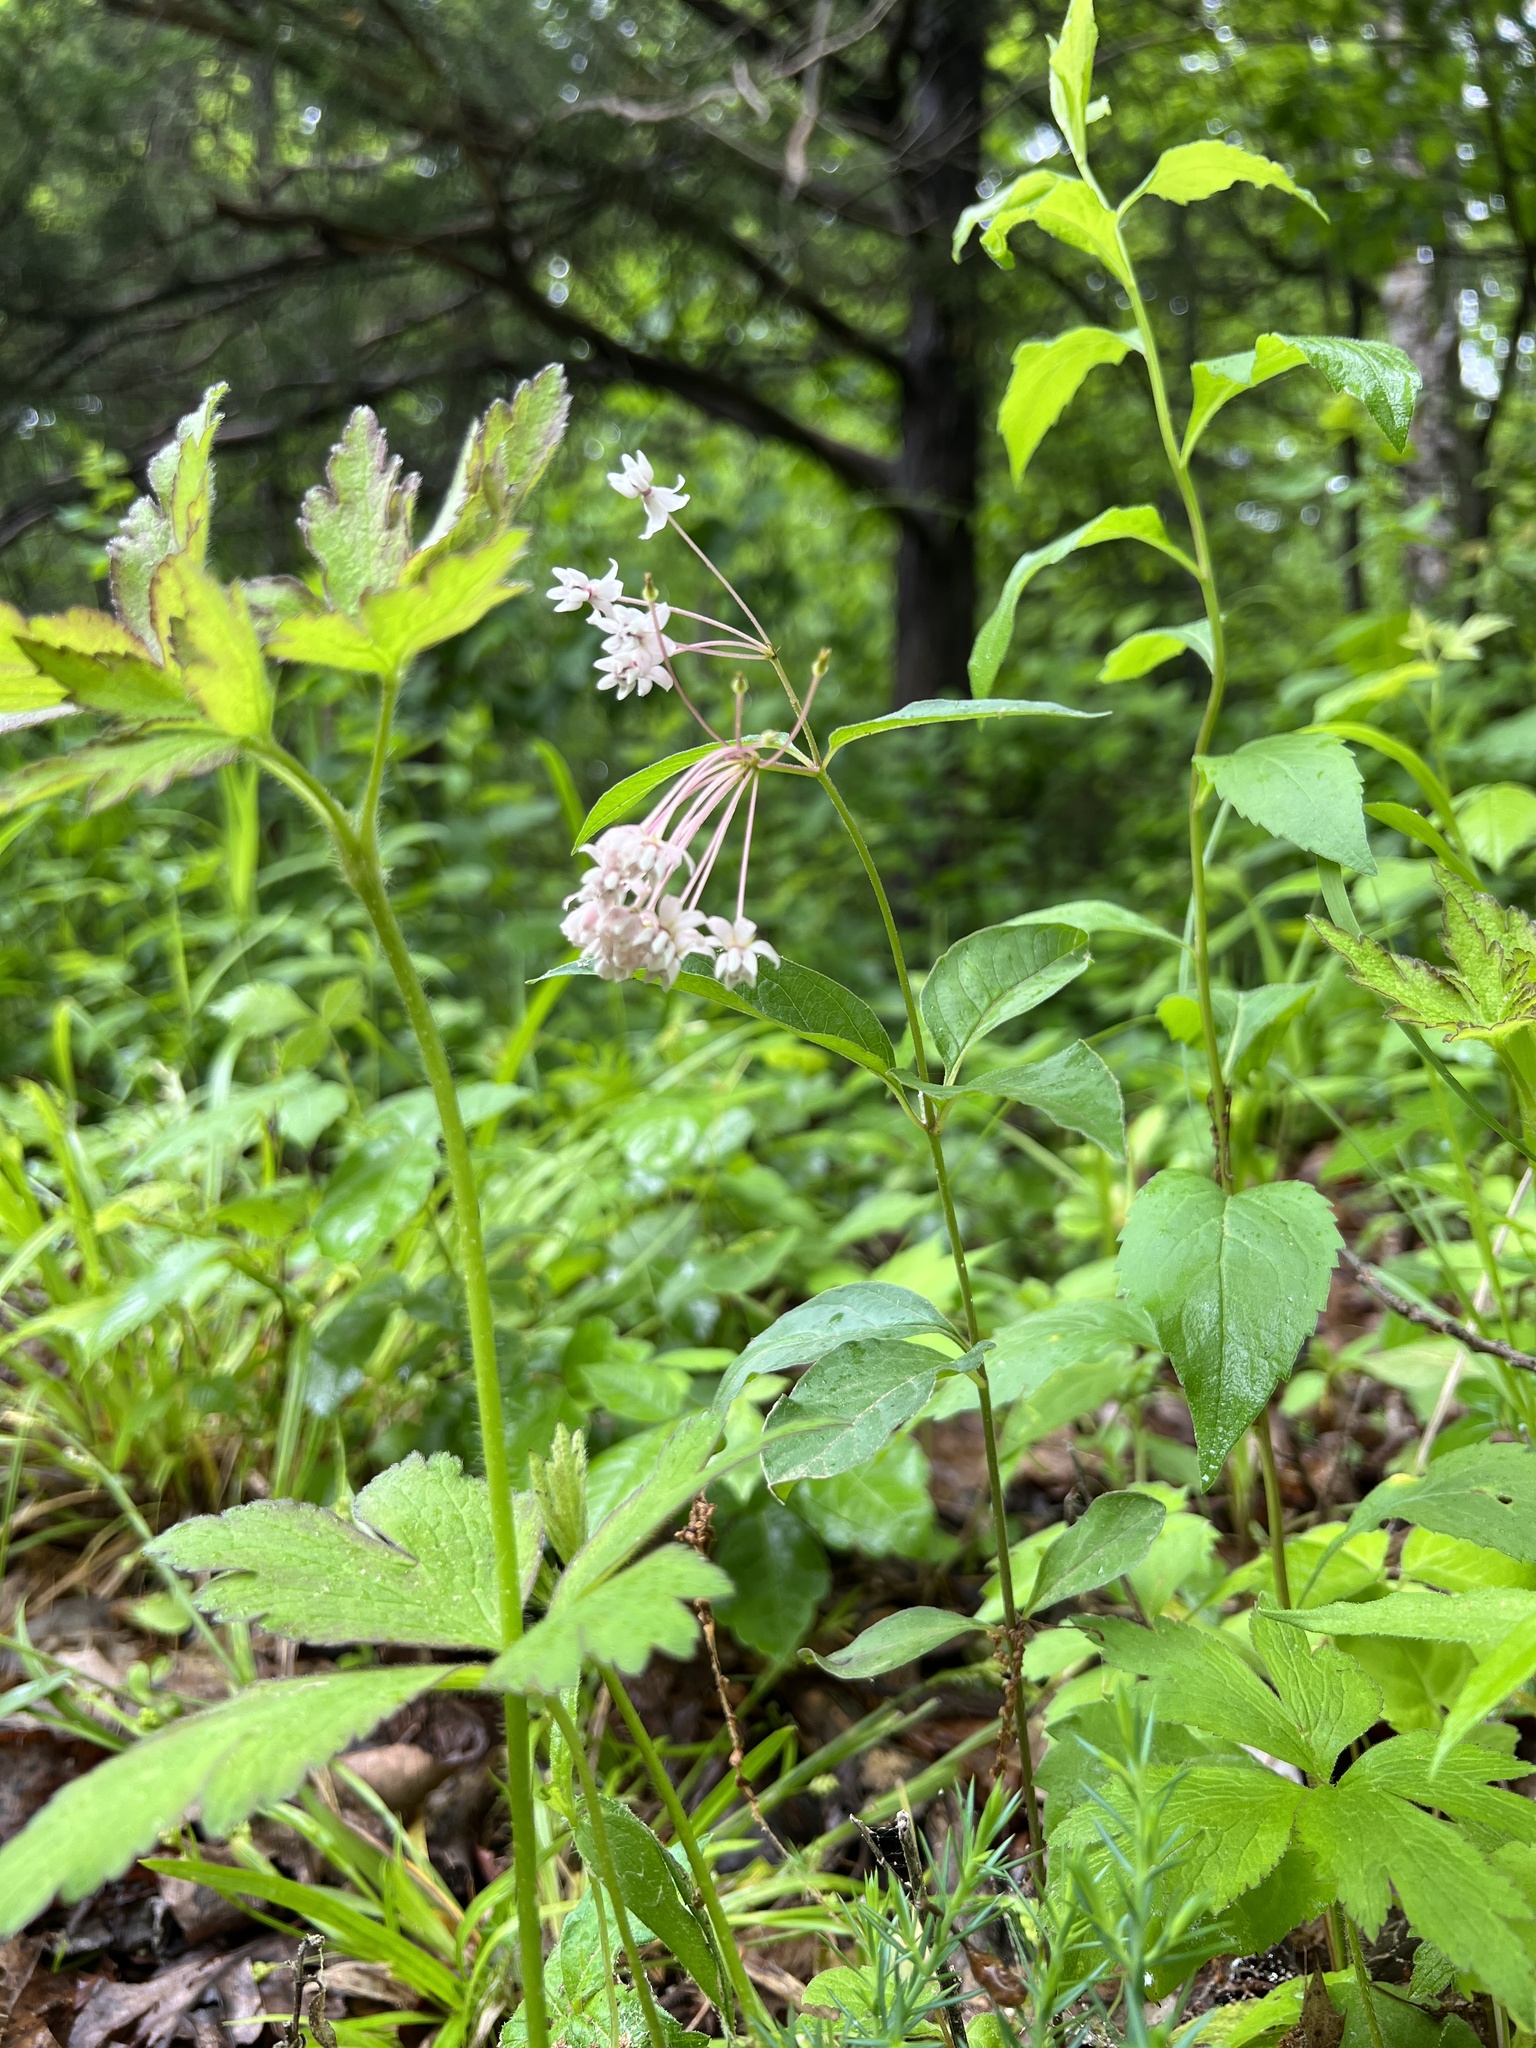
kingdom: Plantae
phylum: Tracheophyta
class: Magnoliopsida
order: Gentianales
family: Apocynaceae
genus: Asclepias
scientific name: Asclepias quadrifolia
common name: Whorled milkweed
